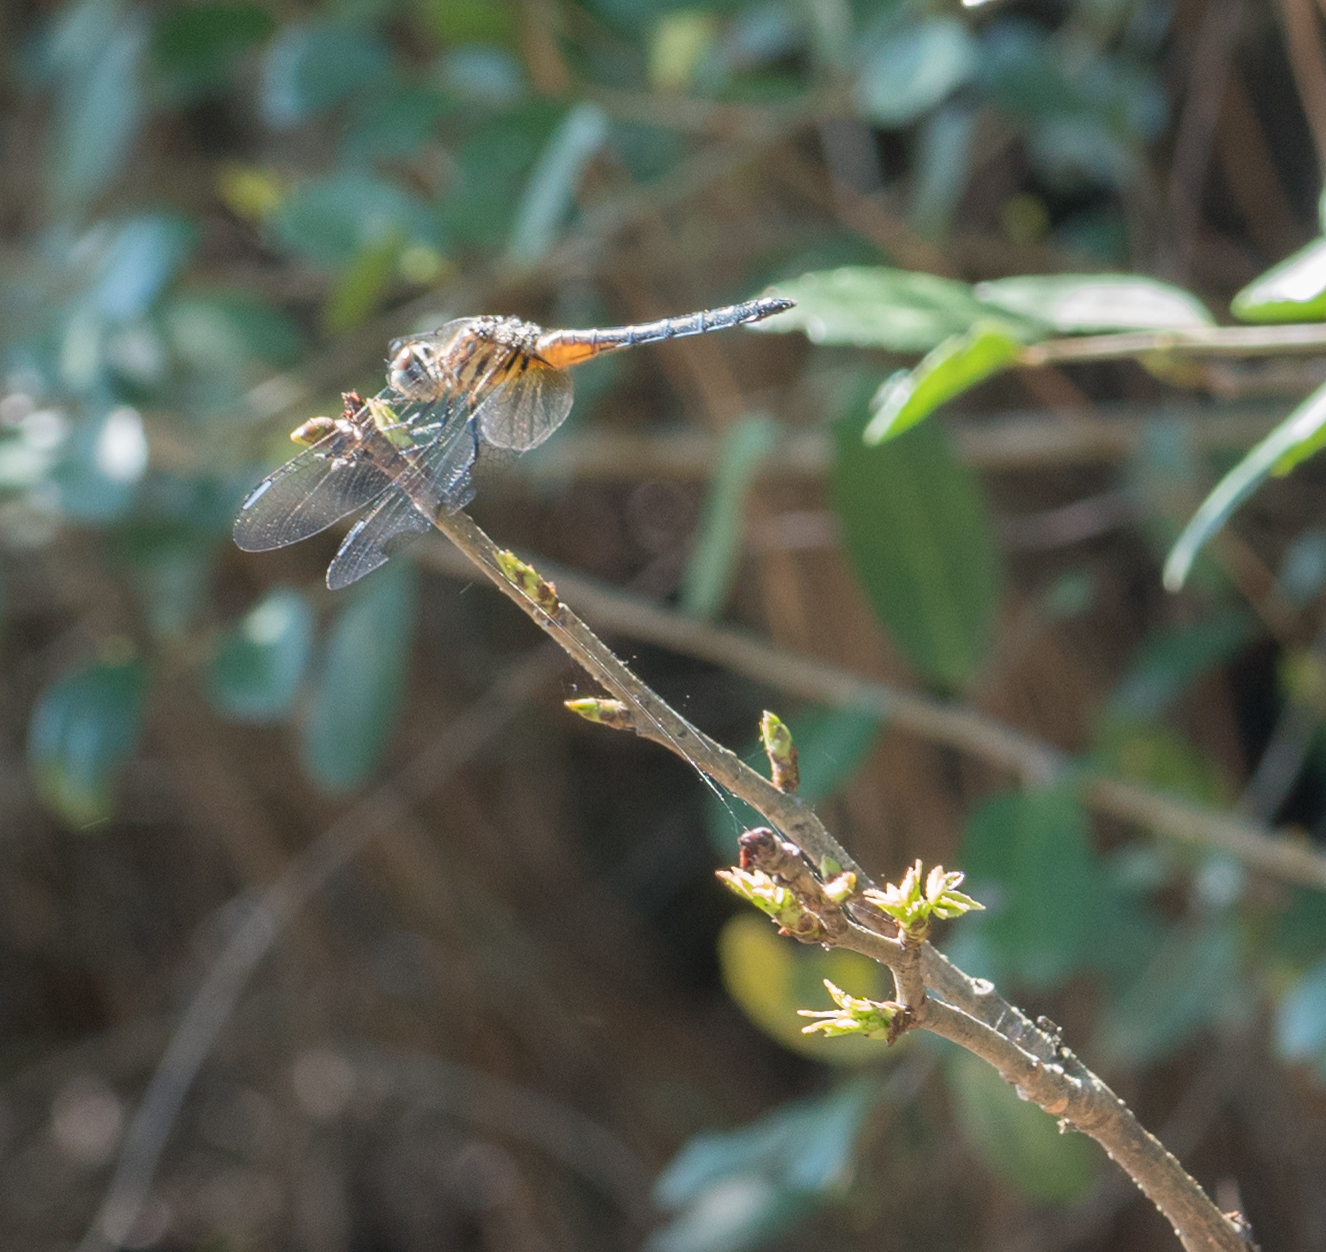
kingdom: Animalia
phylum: Arthropoda
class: Insecta
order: Odonata
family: Libellulidae
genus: Pachydiplax
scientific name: Pachydiplax longipennis
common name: Blue dasher
